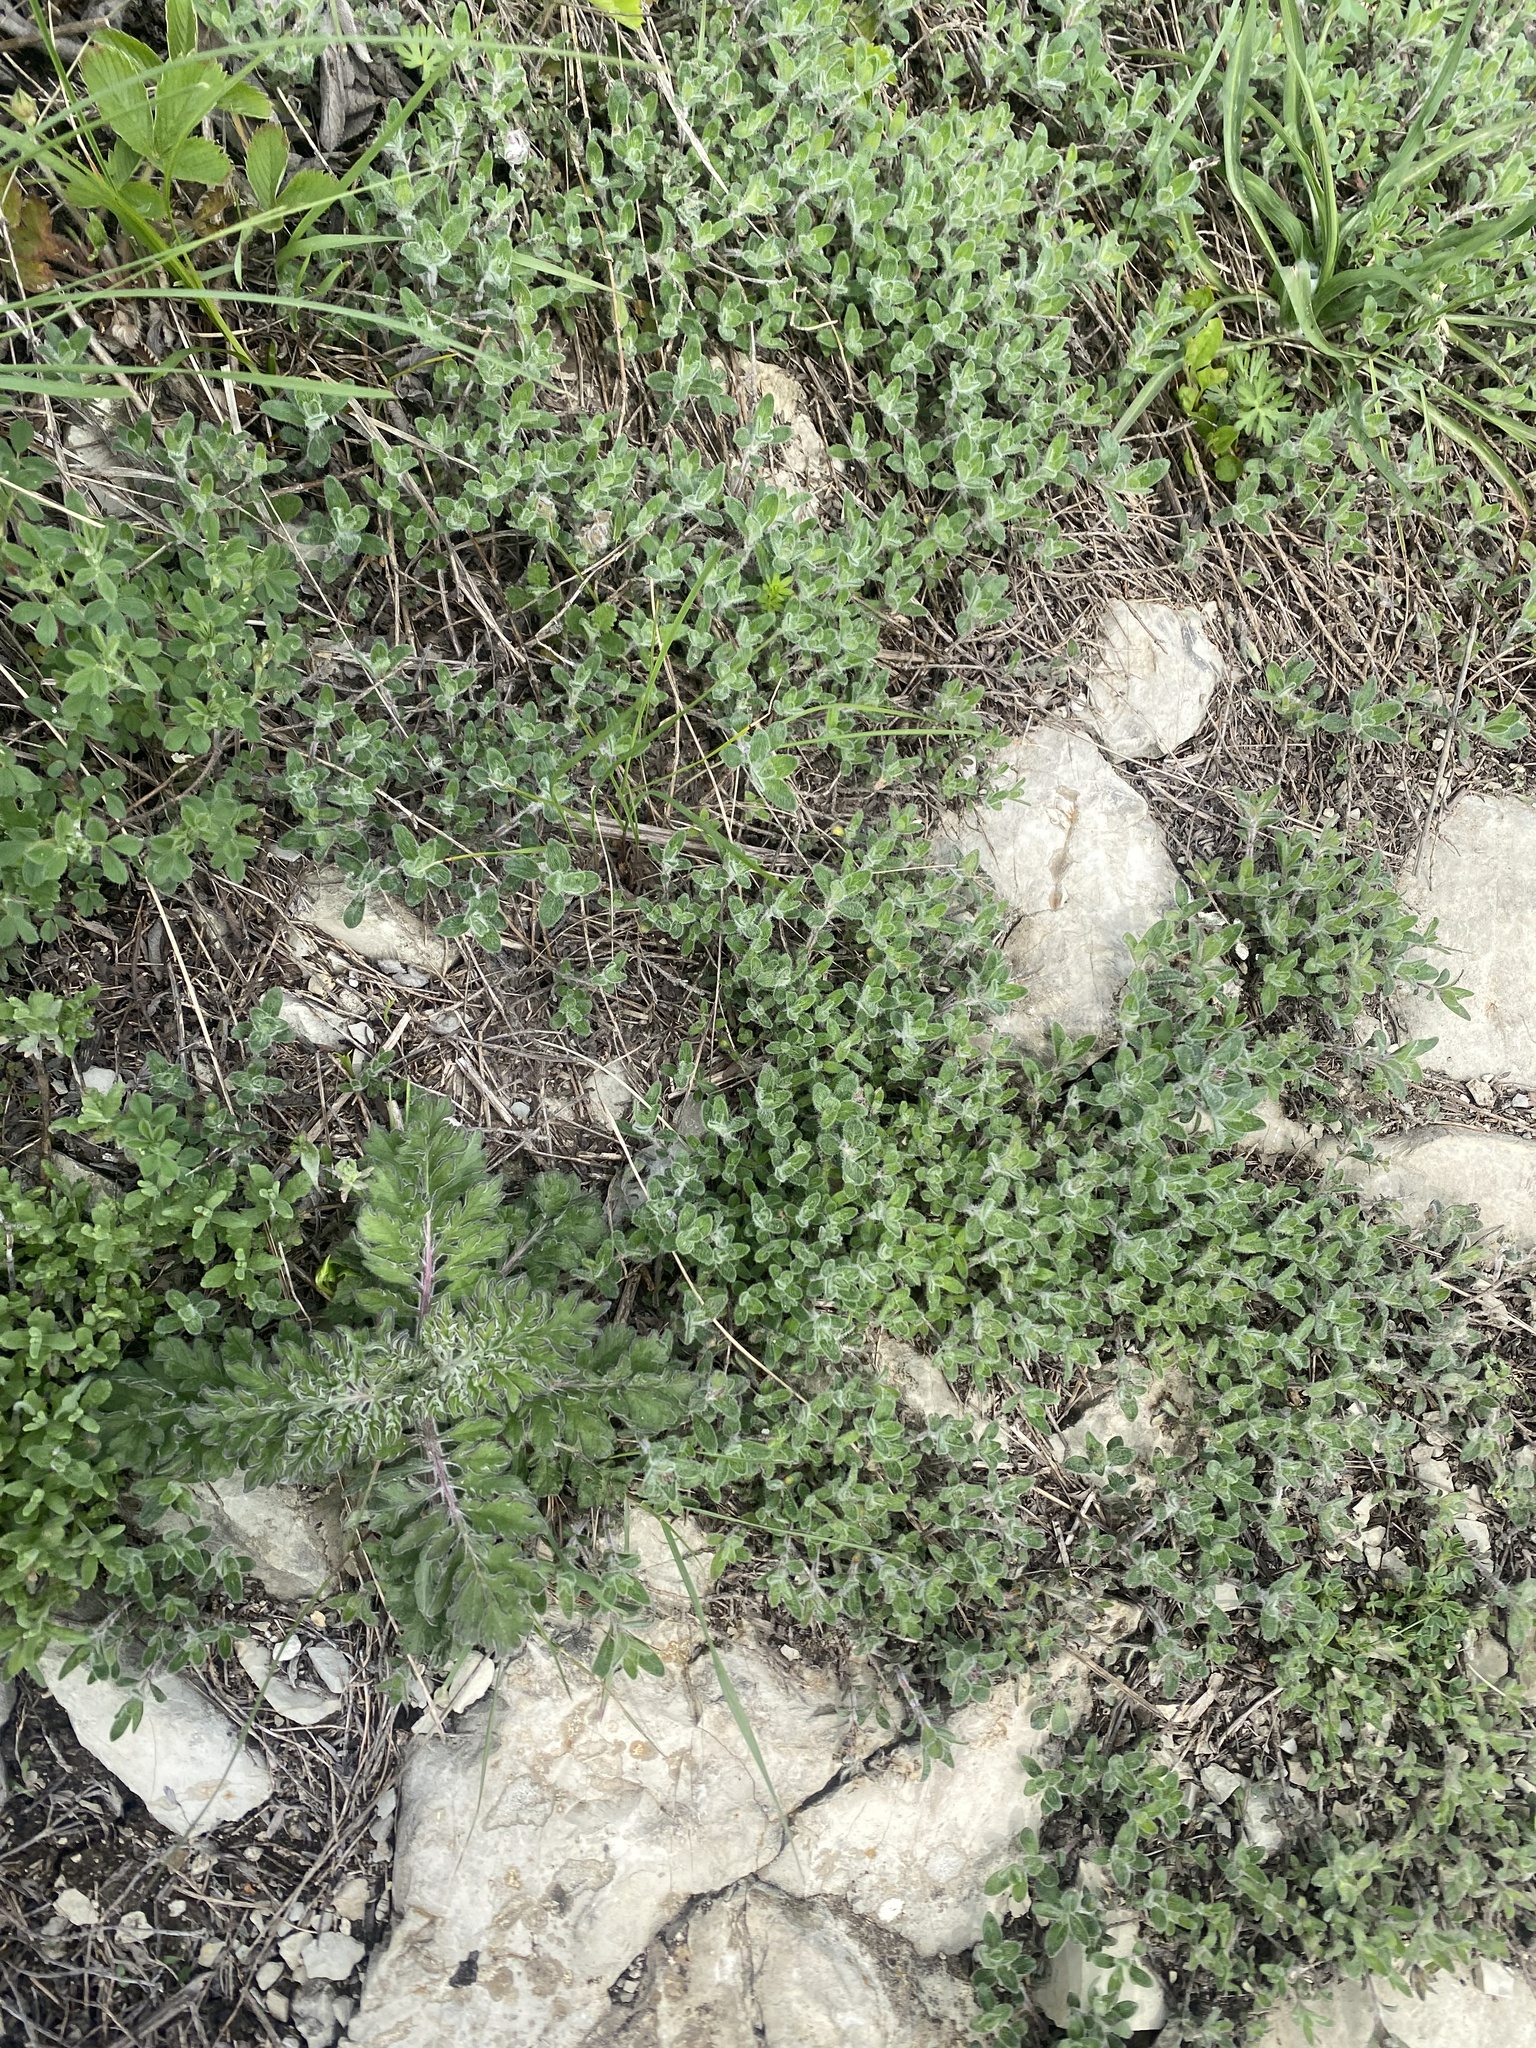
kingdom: Plantae
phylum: Tracheophyta
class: Magnoliopsida
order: Lamiales
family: Lamiaceae
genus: Teucrium
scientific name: Teucrium chamaedrys
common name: Wall germander
